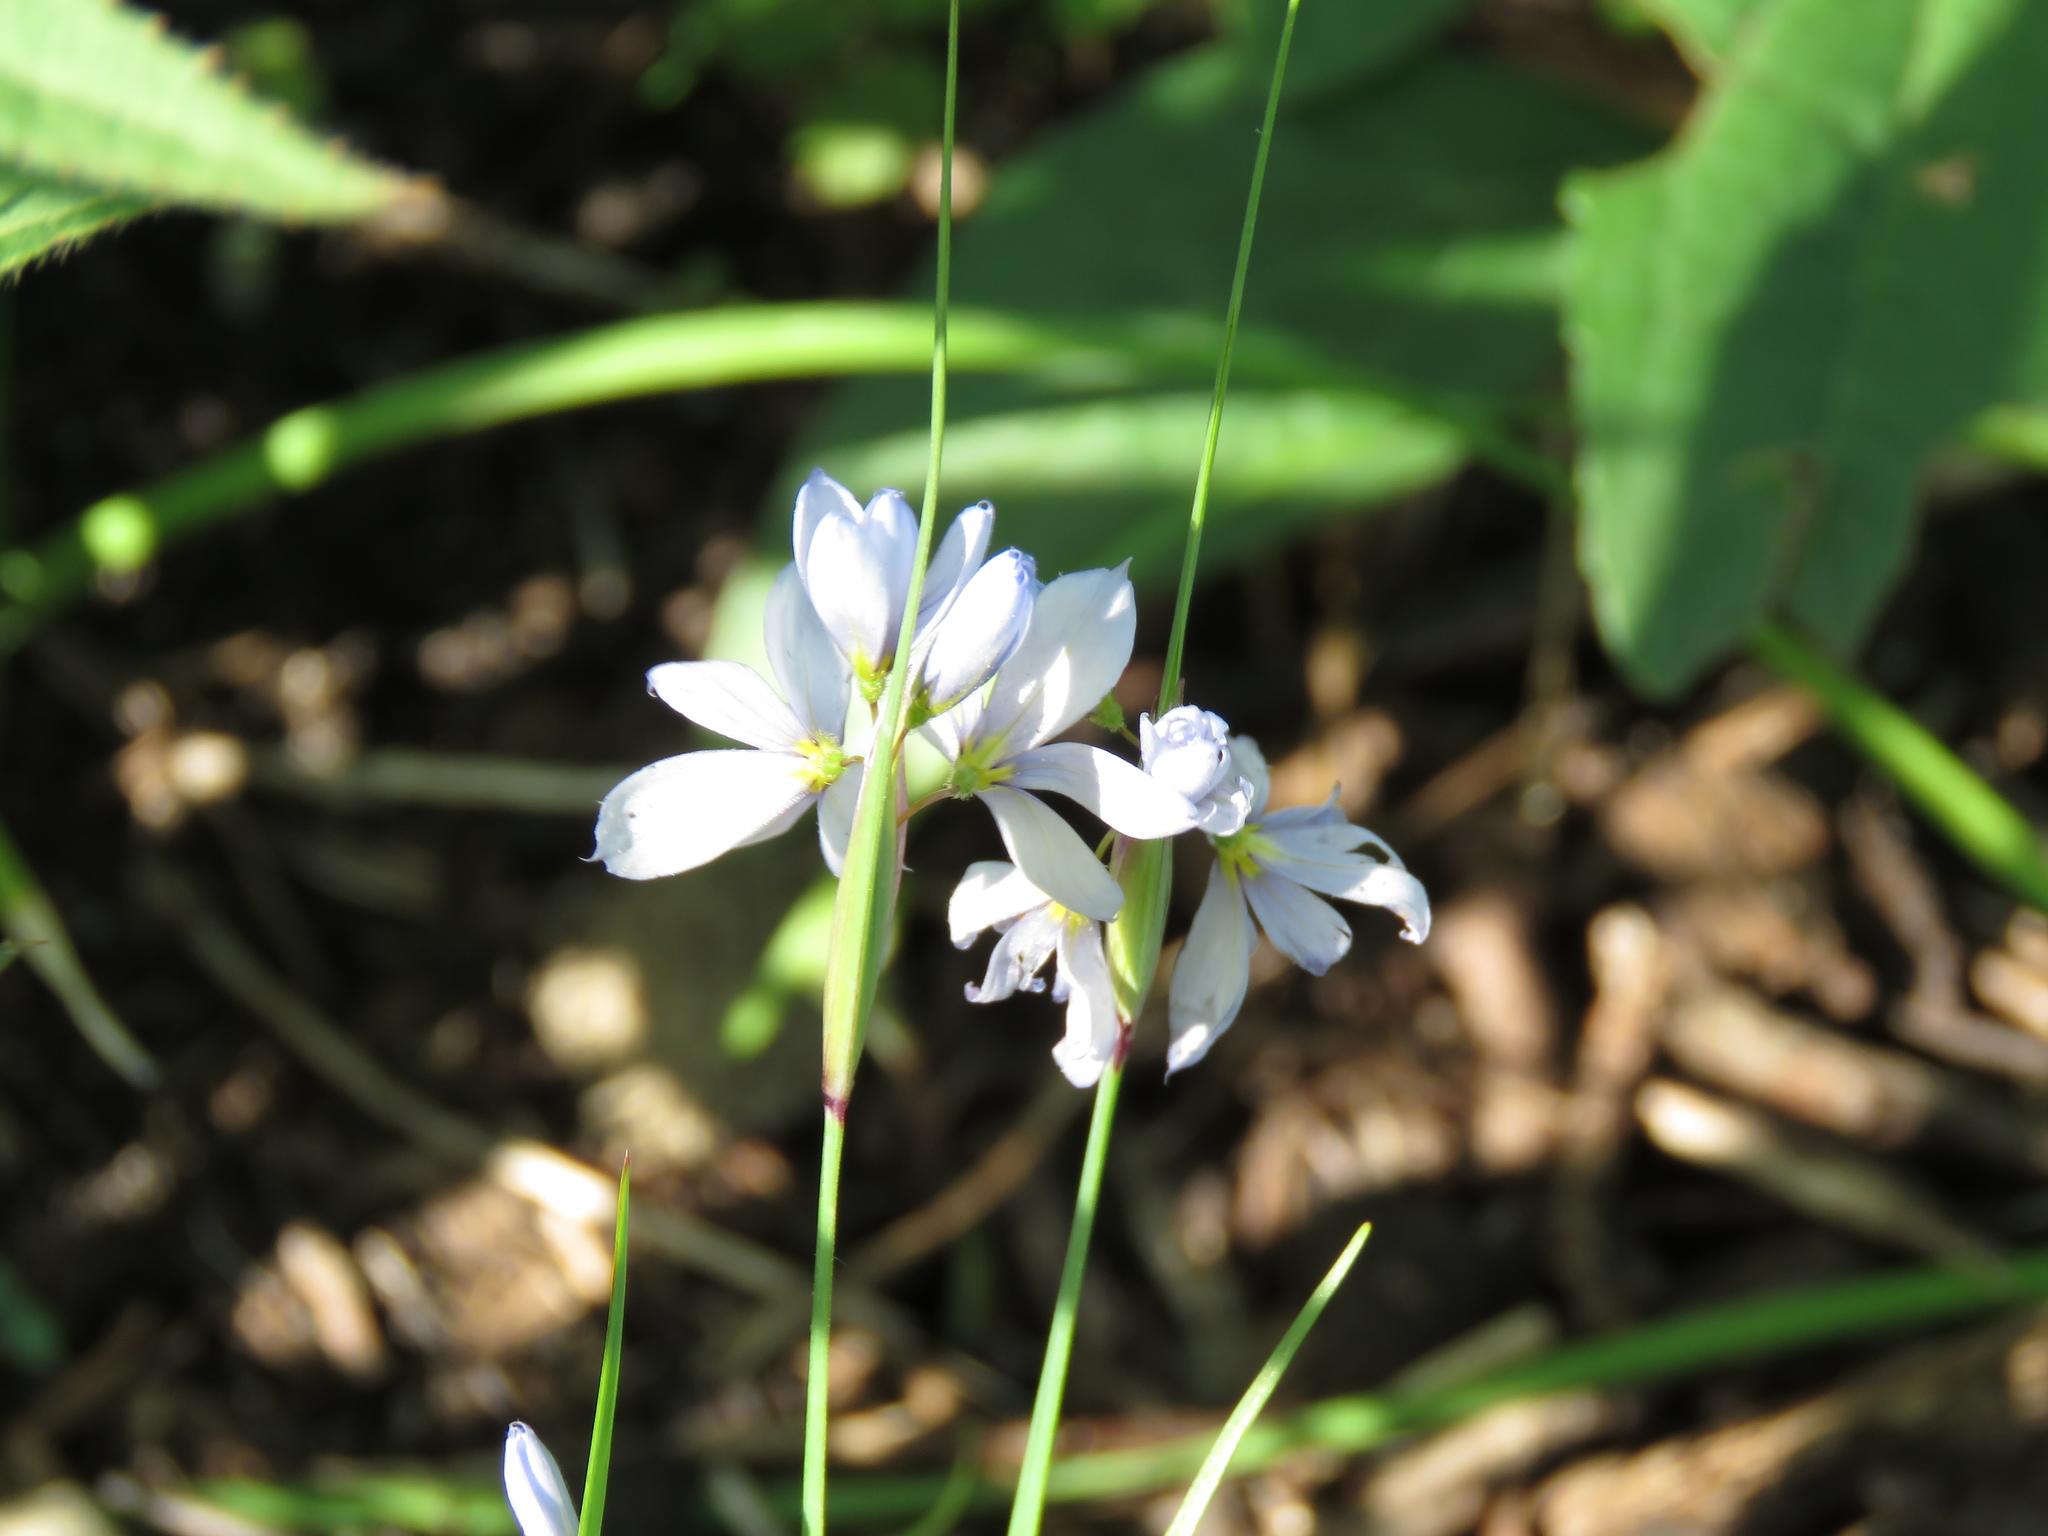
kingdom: Plantae
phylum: Tracheophyta
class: Liliopsida
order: Asparagales
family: Iridaceae
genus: Sisyrinchium
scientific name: Sisyrinchium albidum
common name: Pale blue-eyed-grass
